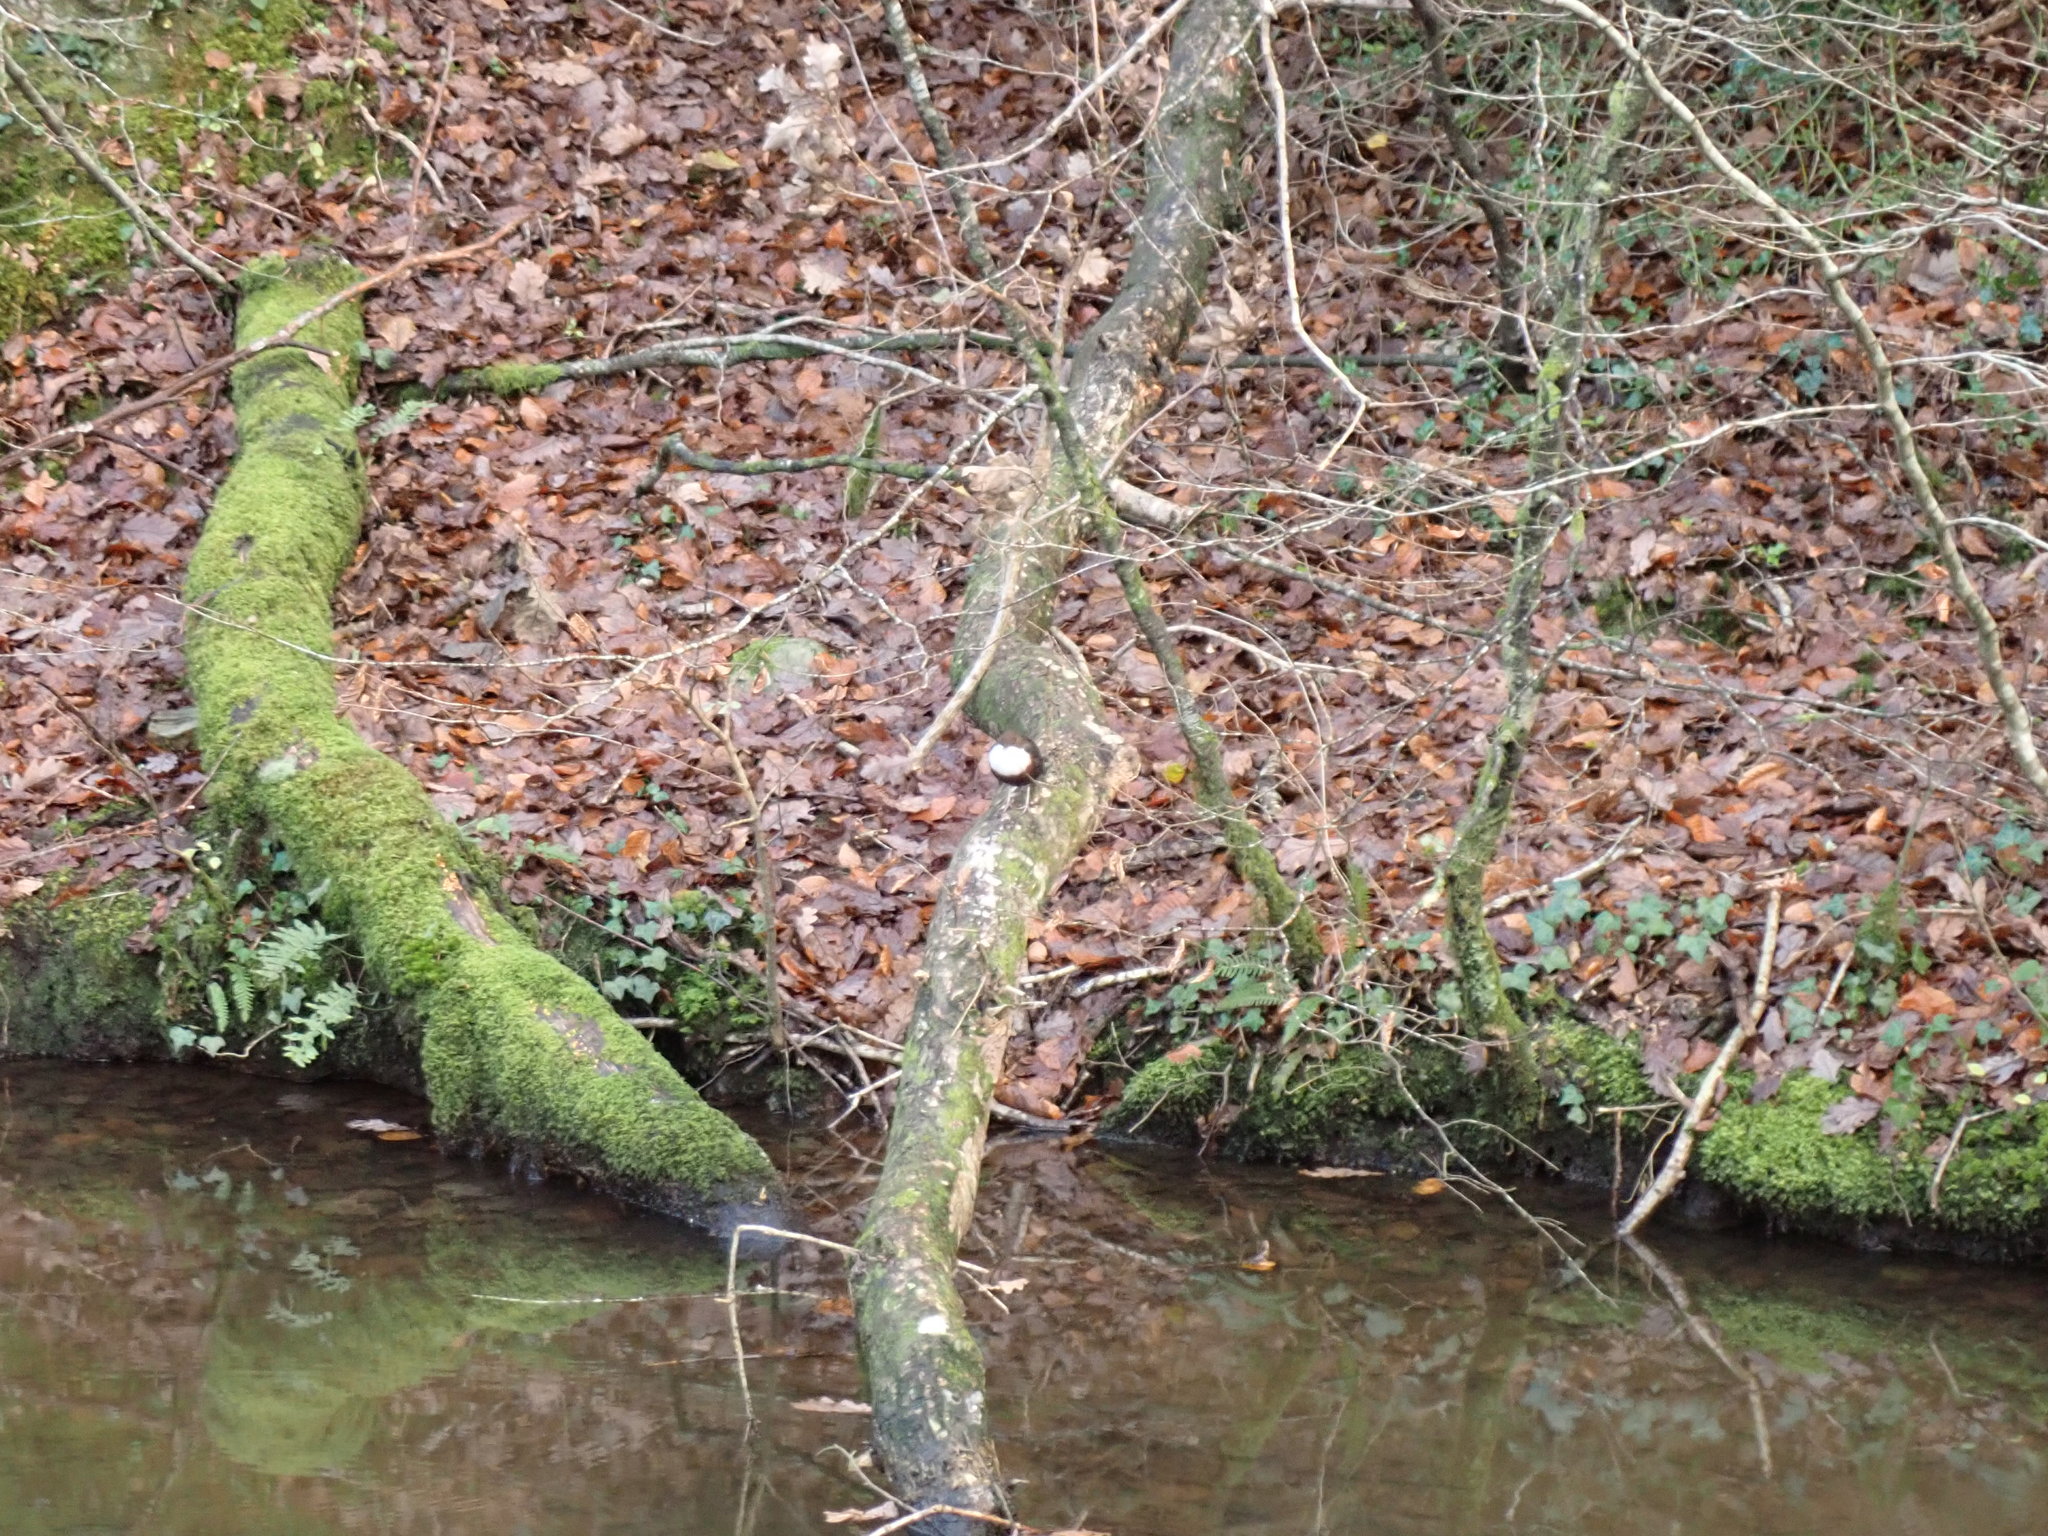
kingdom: Animalia
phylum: Chordata
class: Aves
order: Passeriformes
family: Cinclidae
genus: Cinclus
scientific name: Cinclus cinclus
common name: White-throated dipper
